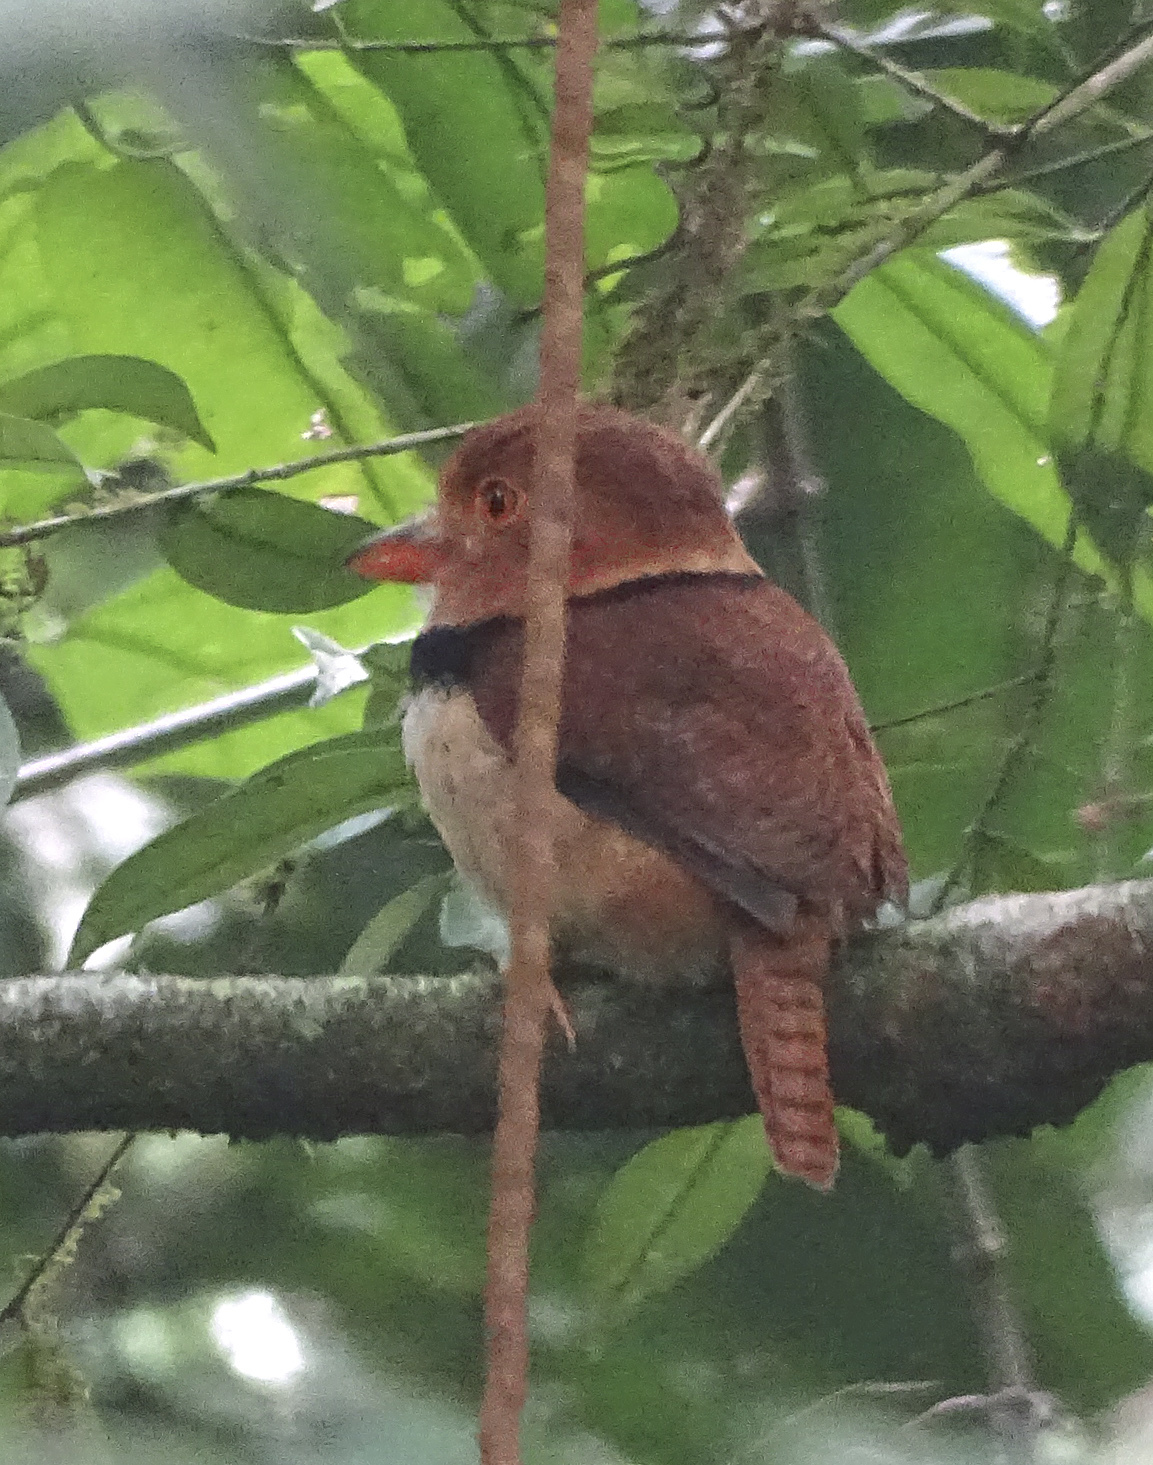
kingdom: Animalia
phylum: Chordata
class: Aves
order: Piciformes
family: Bucconidae
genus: Bucco
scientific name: Bucco capensis
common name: Collared puffbird
